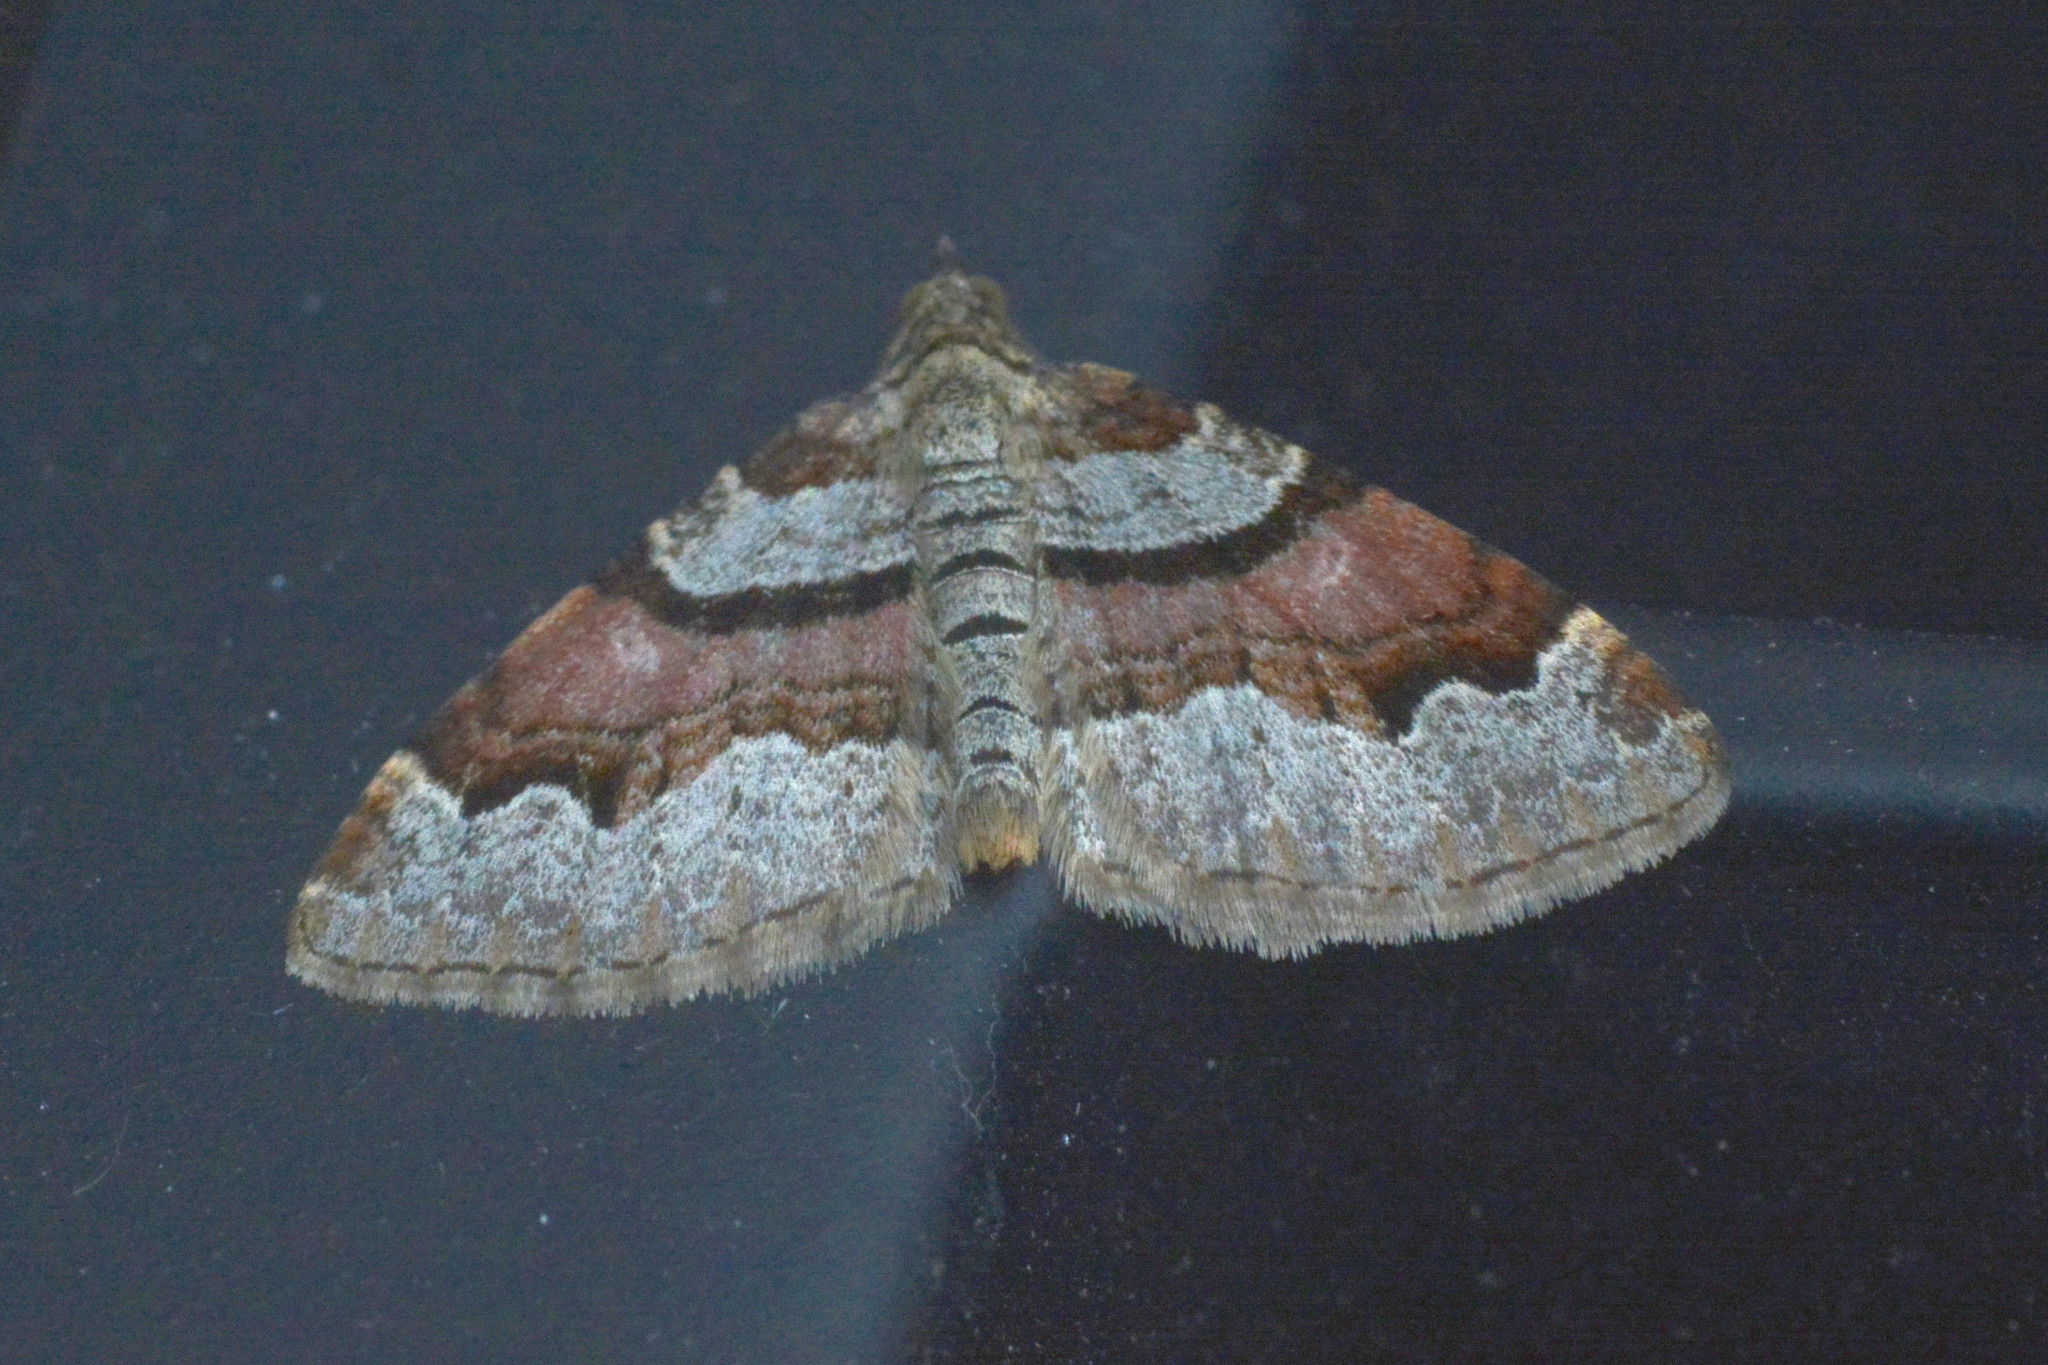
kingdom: Animalia
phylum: Arthropoda
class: Insecta
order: Lepidoptera
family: Geometridae
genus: Xanthorhoe
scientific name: Xanthorhoe designata
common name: Flame carpet
